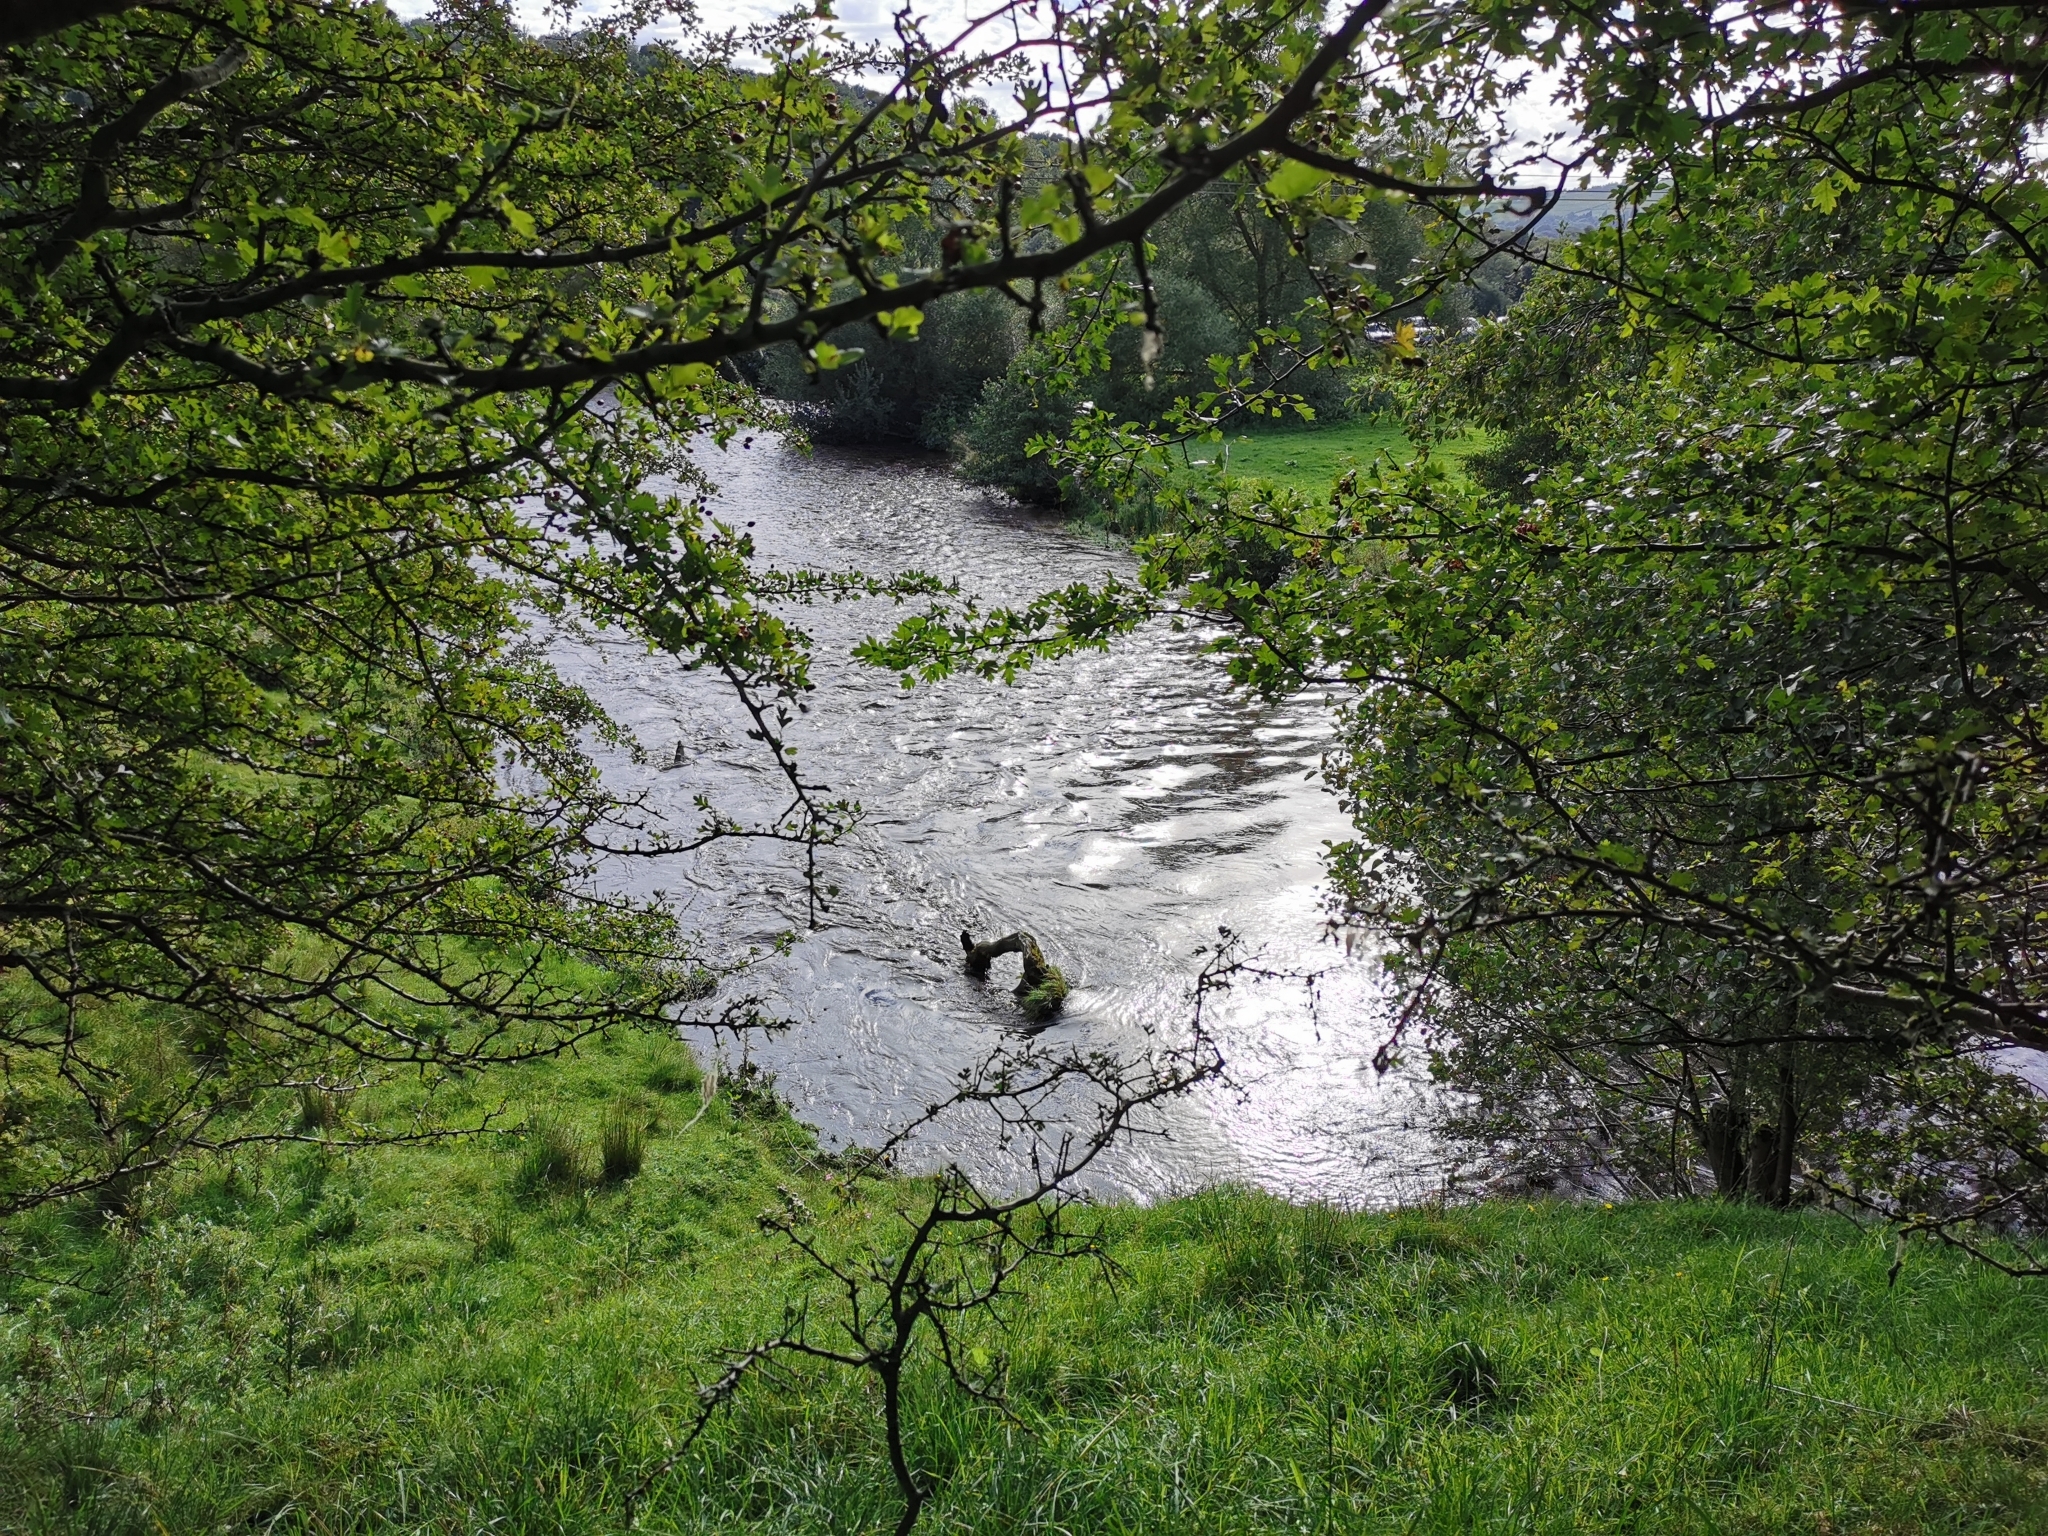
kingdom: Fungi
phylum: Basidiomycota
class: Agaricomycetes
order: Auriculariales
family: Auriculariaceae
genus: Auricularia
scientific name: Auricularia auricula-judae
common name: Jelly ear
